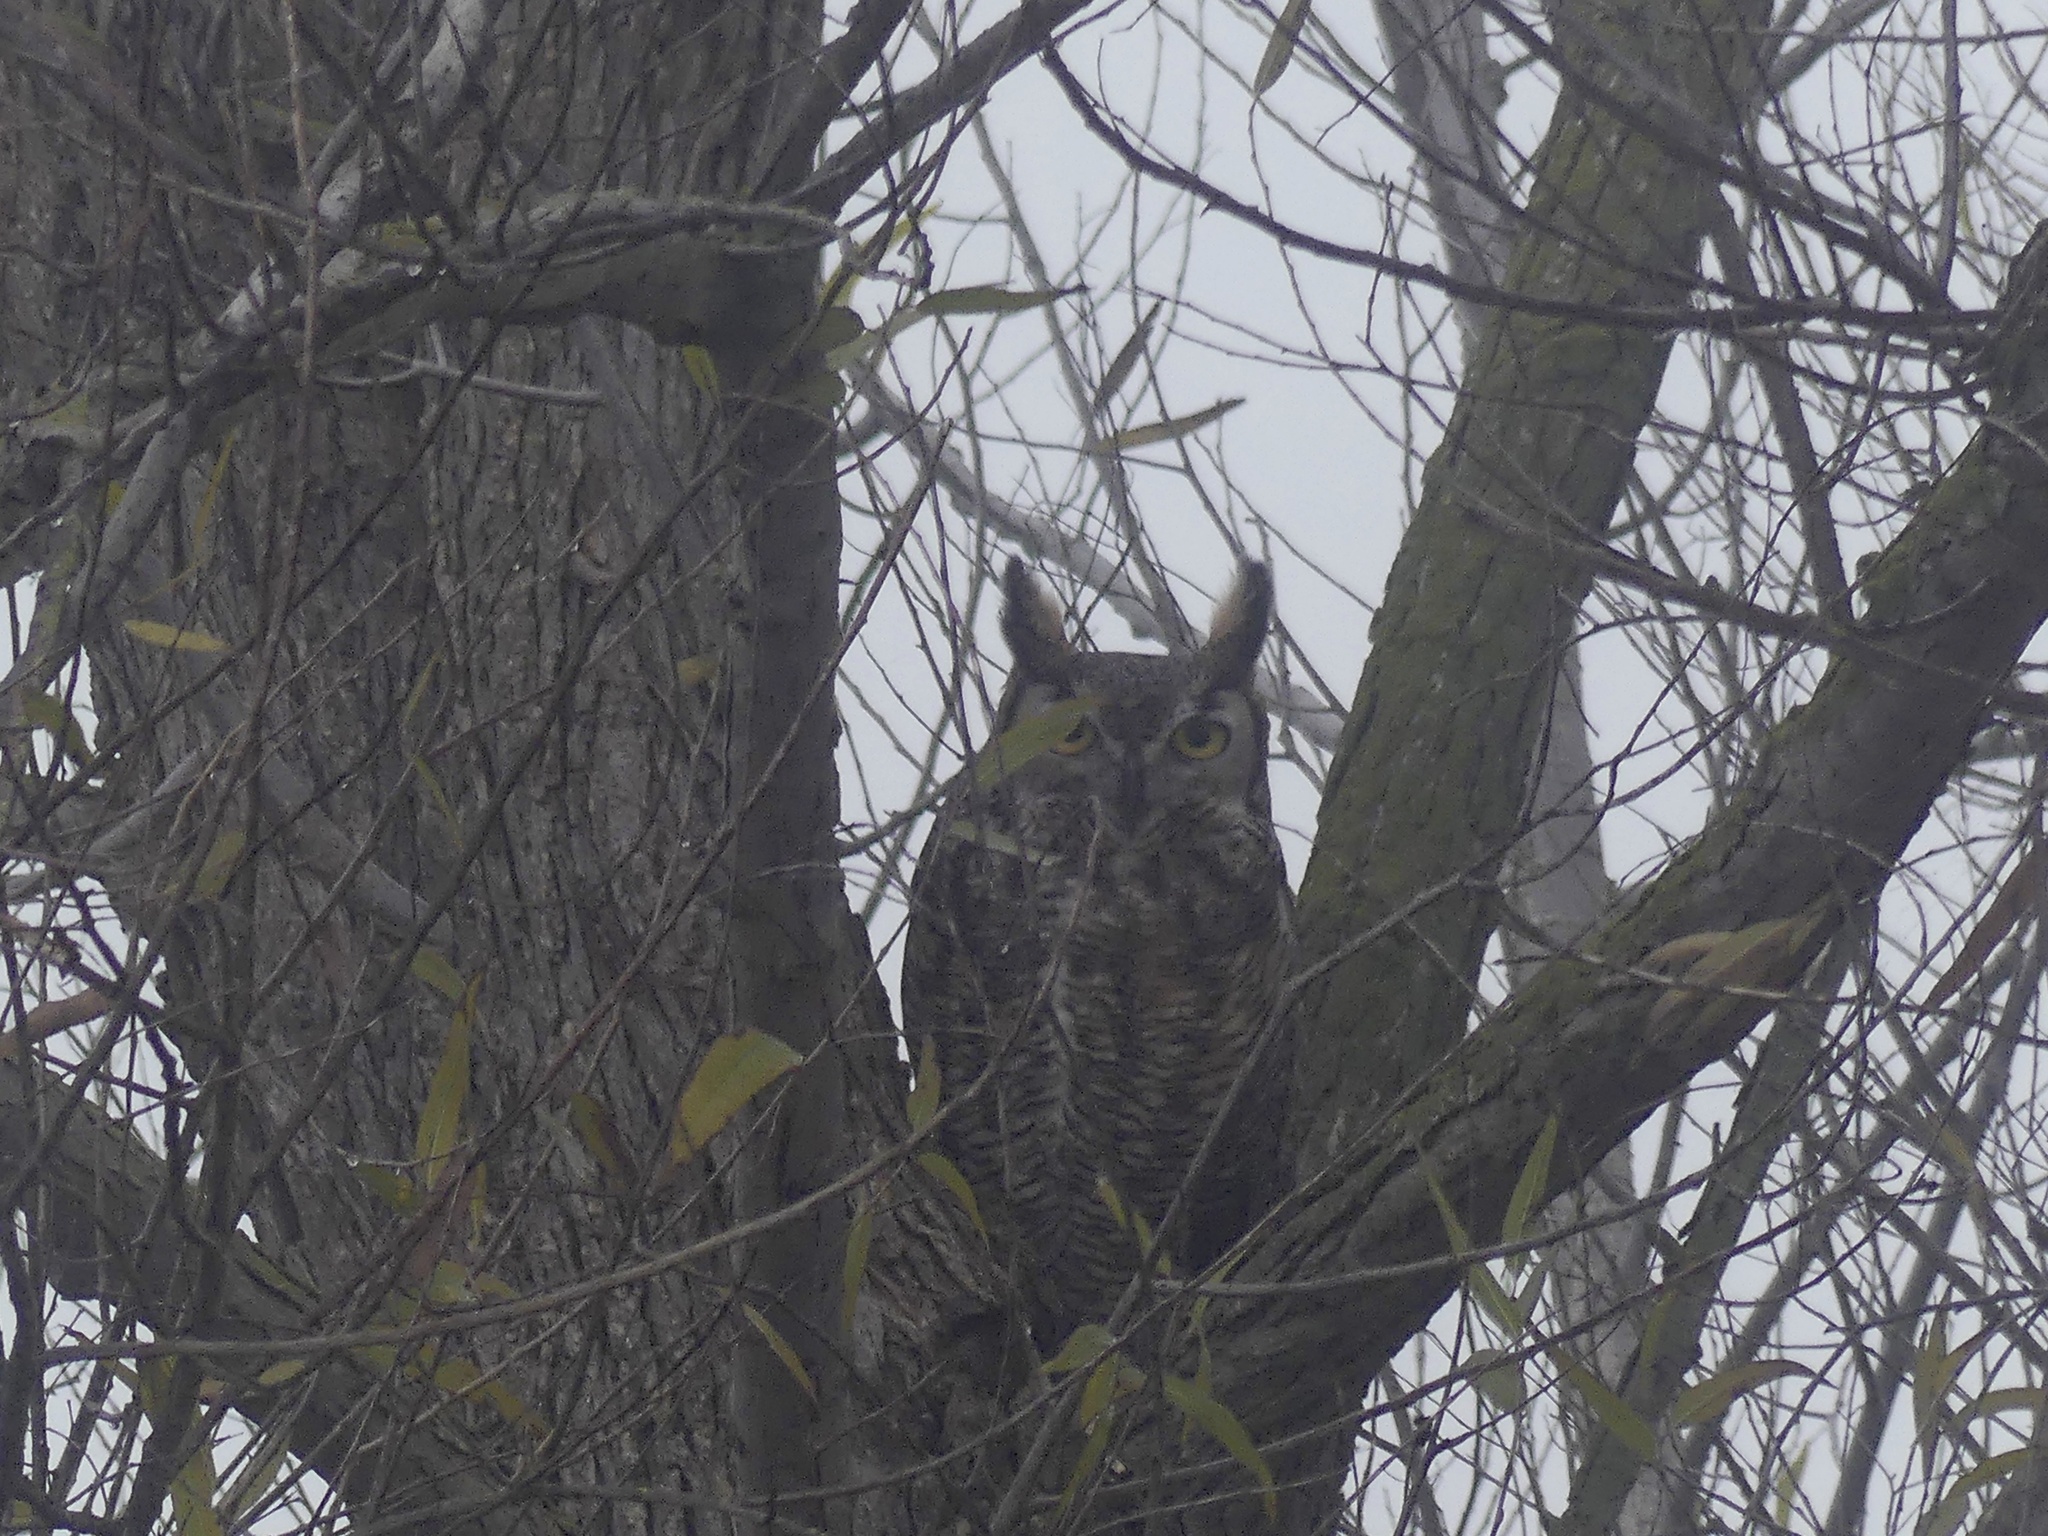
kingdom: Animalia
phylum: Chordata
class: Aves
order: Strigiformes
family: Strigidae
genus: Bubo
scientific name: Bubo virginianus
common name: Great horned owl
